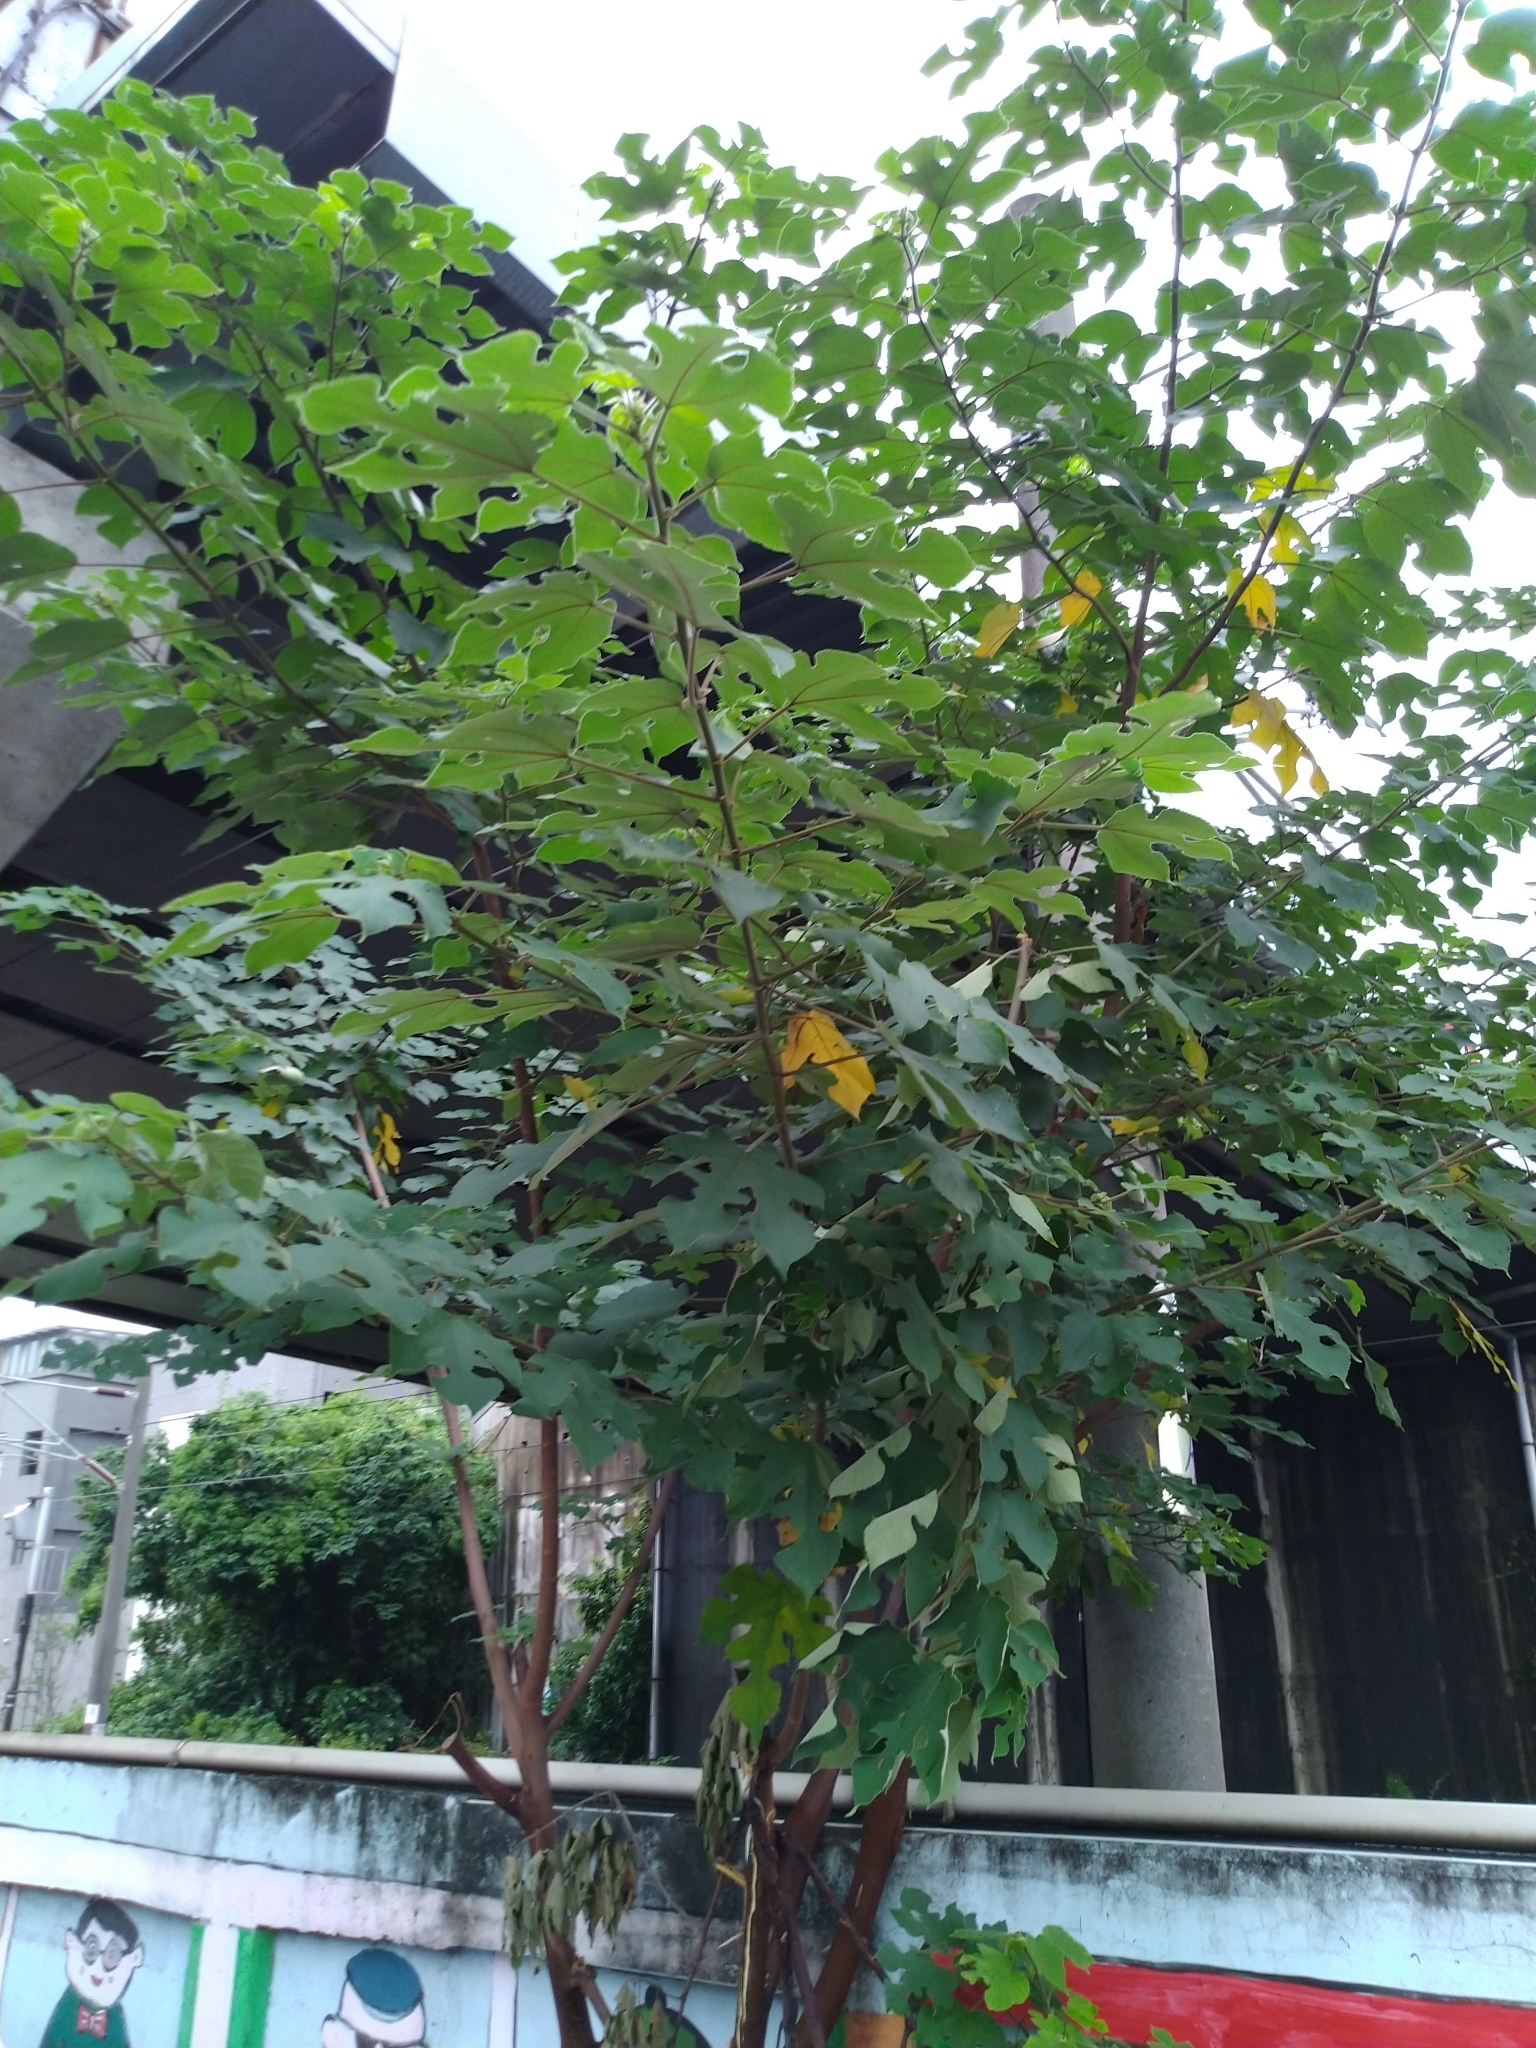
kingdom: Plantae
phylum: Tracheophyta
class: Magnoliopsida
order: Rosales
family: Moraceae
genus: Broussonetia
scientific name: Broussonetia papyrifera
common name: Paper mulberry
